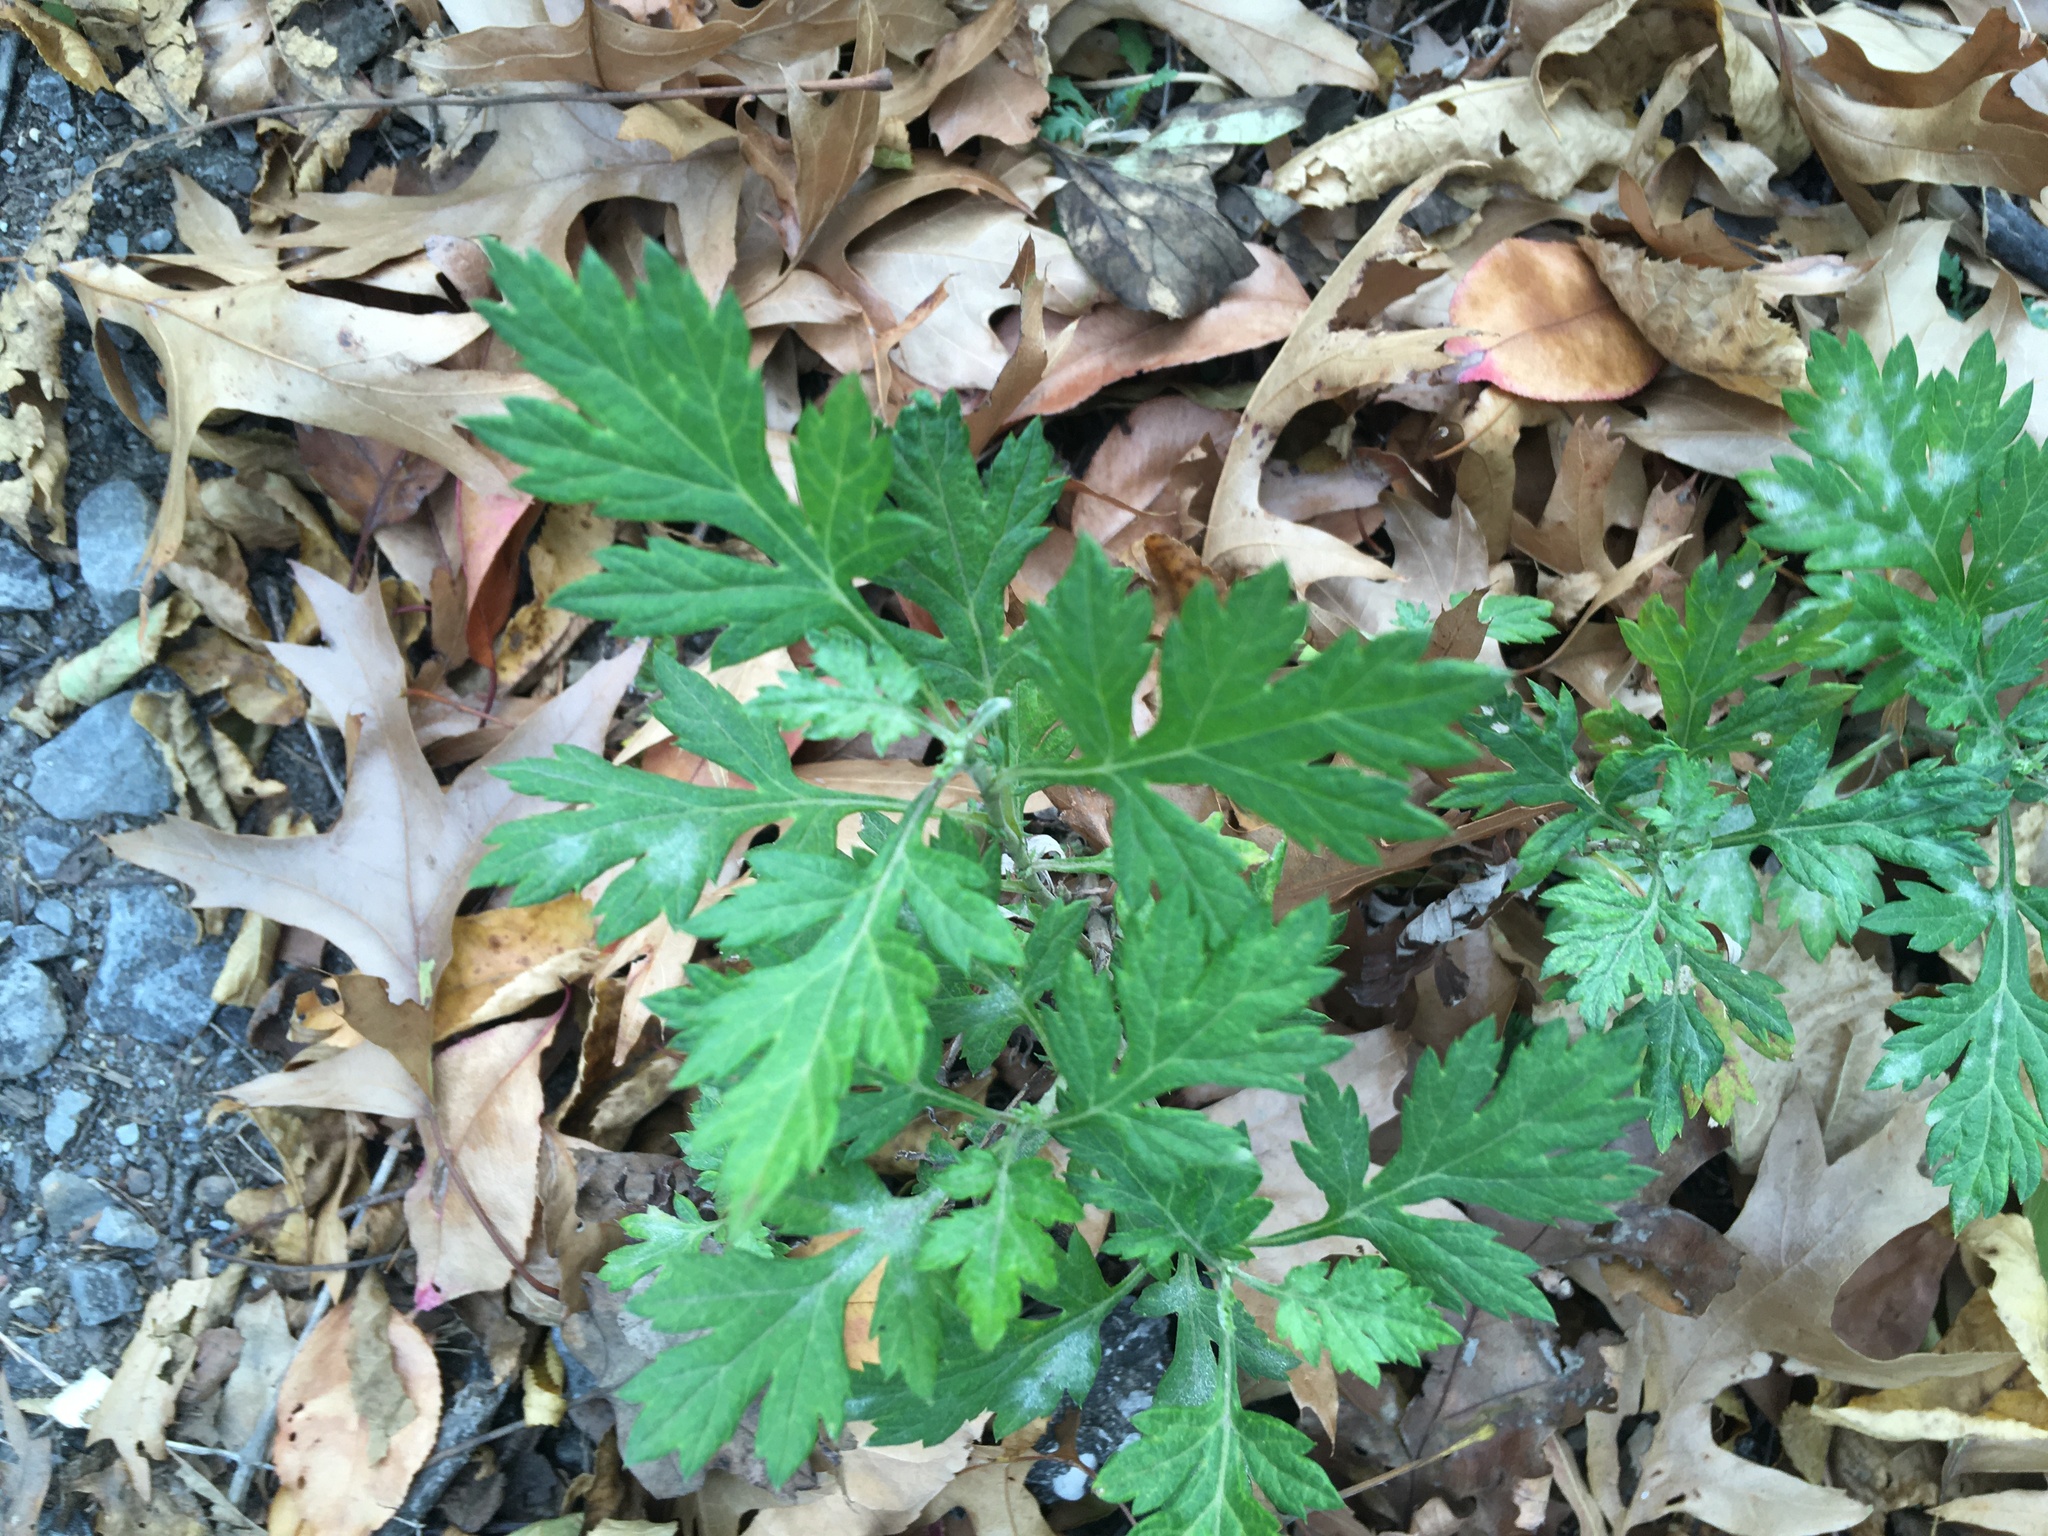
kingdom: Plantae
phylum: Tracheophyta
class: Magnoliopsida
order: Asterales
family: Asteraceae
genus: Artemisia
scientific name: Artemisia vulgaris
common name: Mugwort
